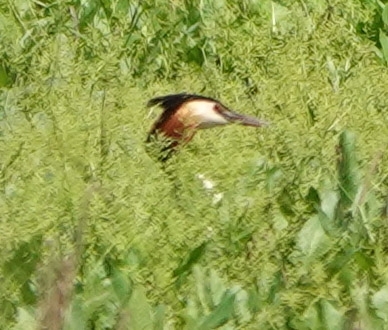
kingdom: Animalia
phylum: Chordata
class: Aves
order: Podicipediformes
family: Podicipedidae
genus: Podiceps
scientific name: Podiceps cristatus
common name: Great crested grebe
